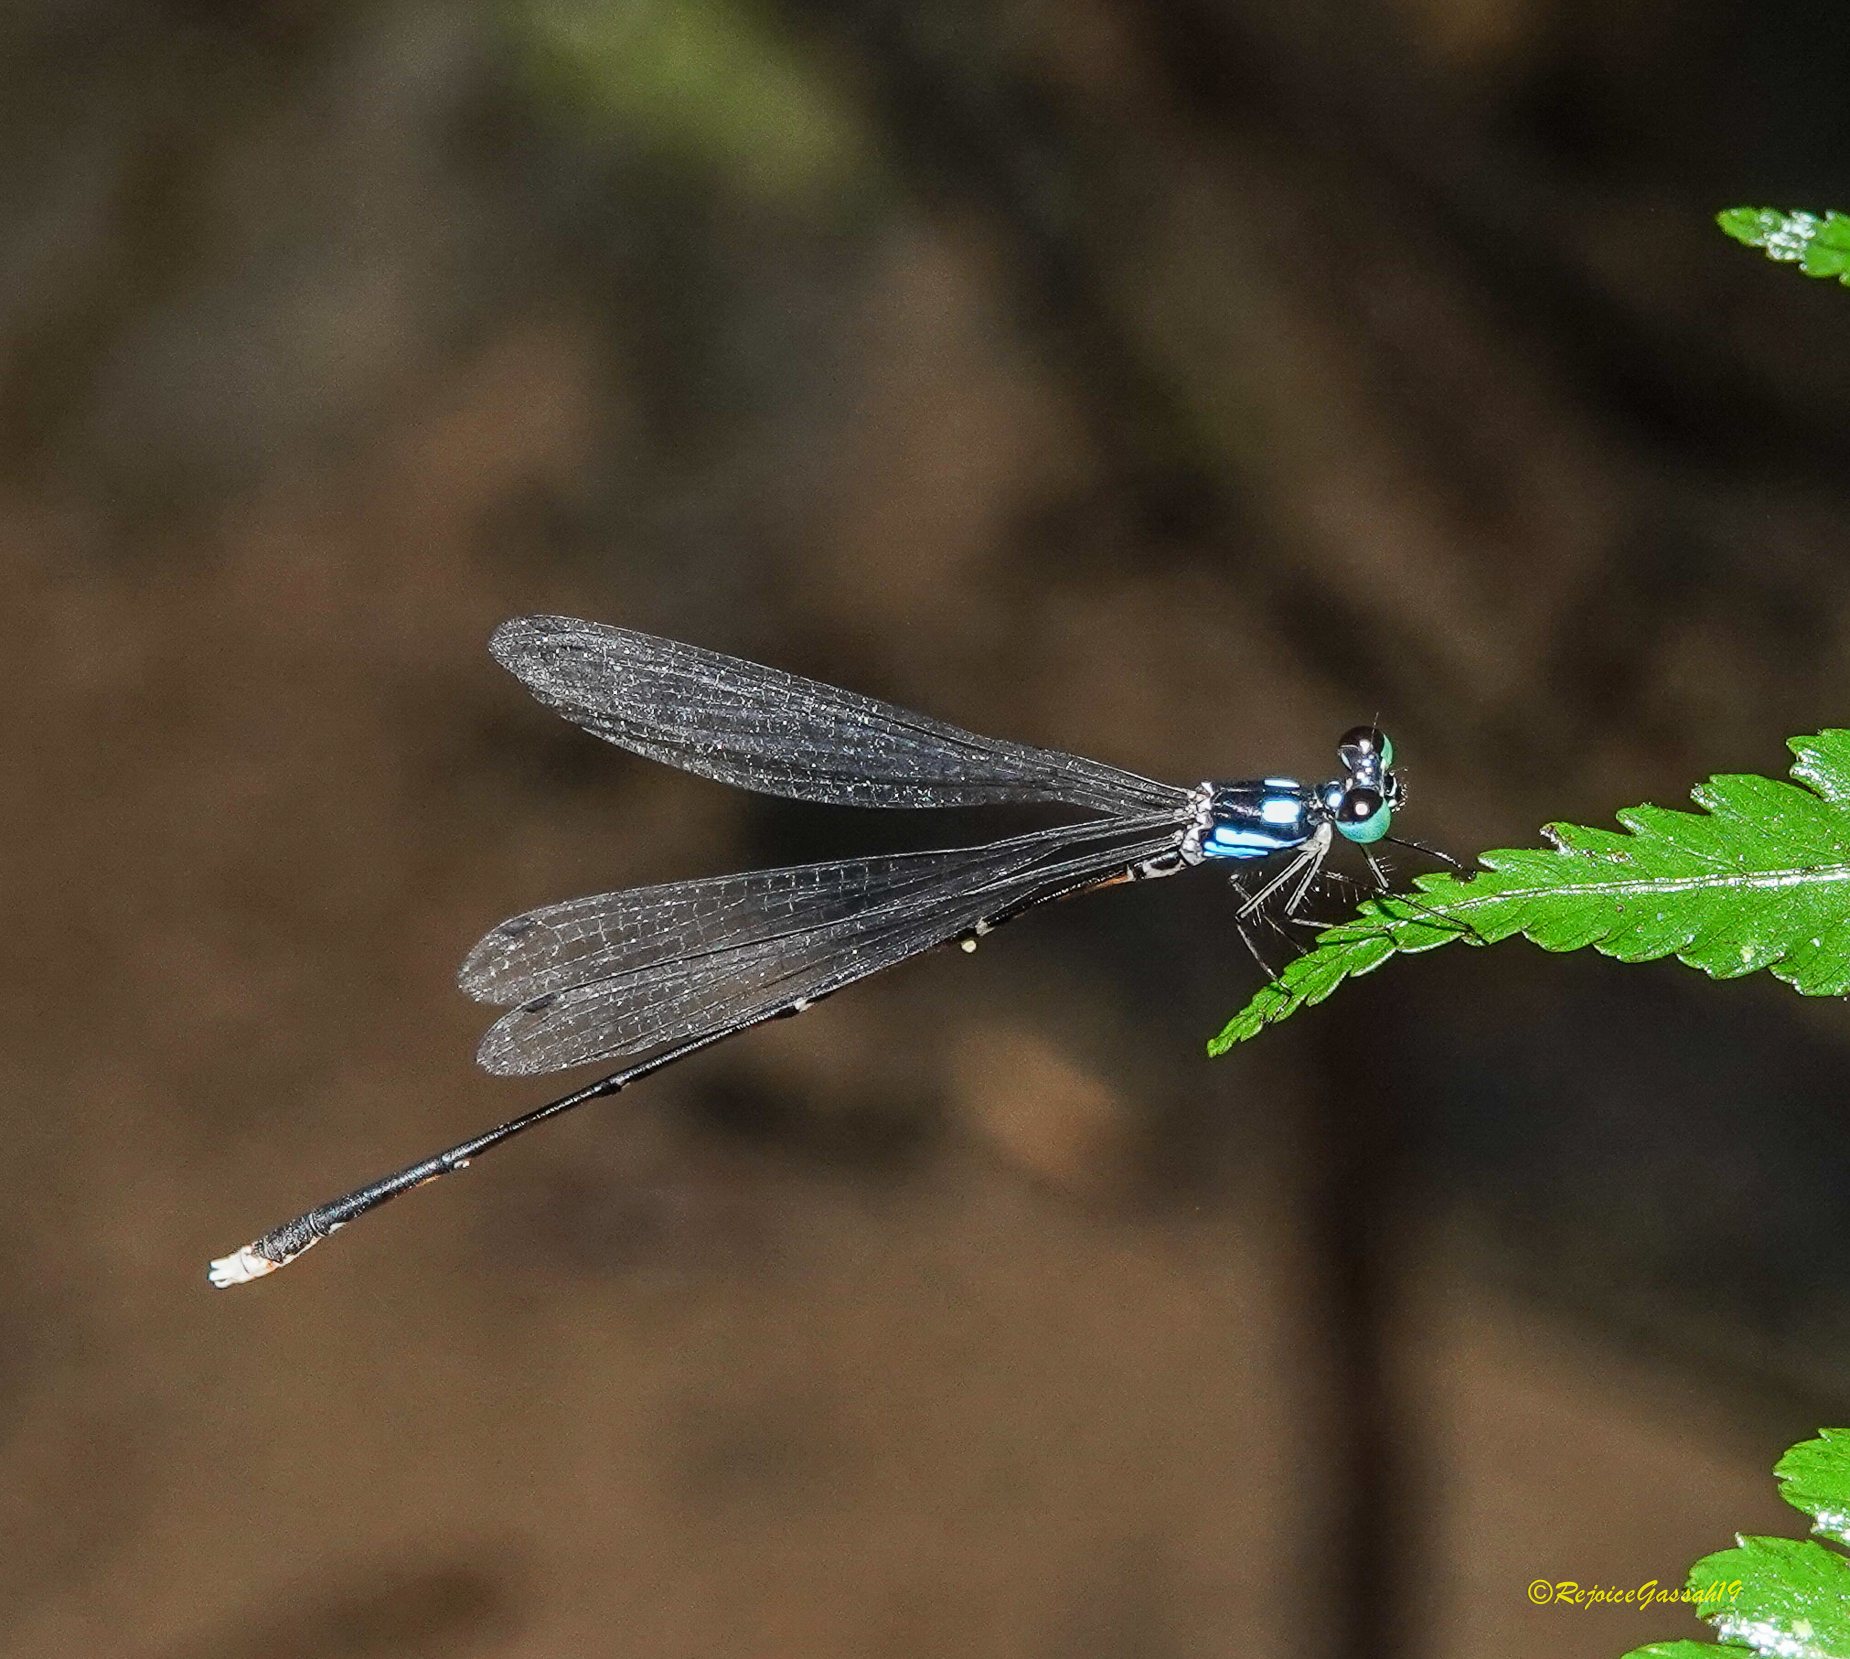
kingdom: Animalia
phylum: Arthropoda
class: Insecta
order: Odonata
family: Platycnemididae
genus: Coeliccia
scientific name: Coeliccia bimaculata
